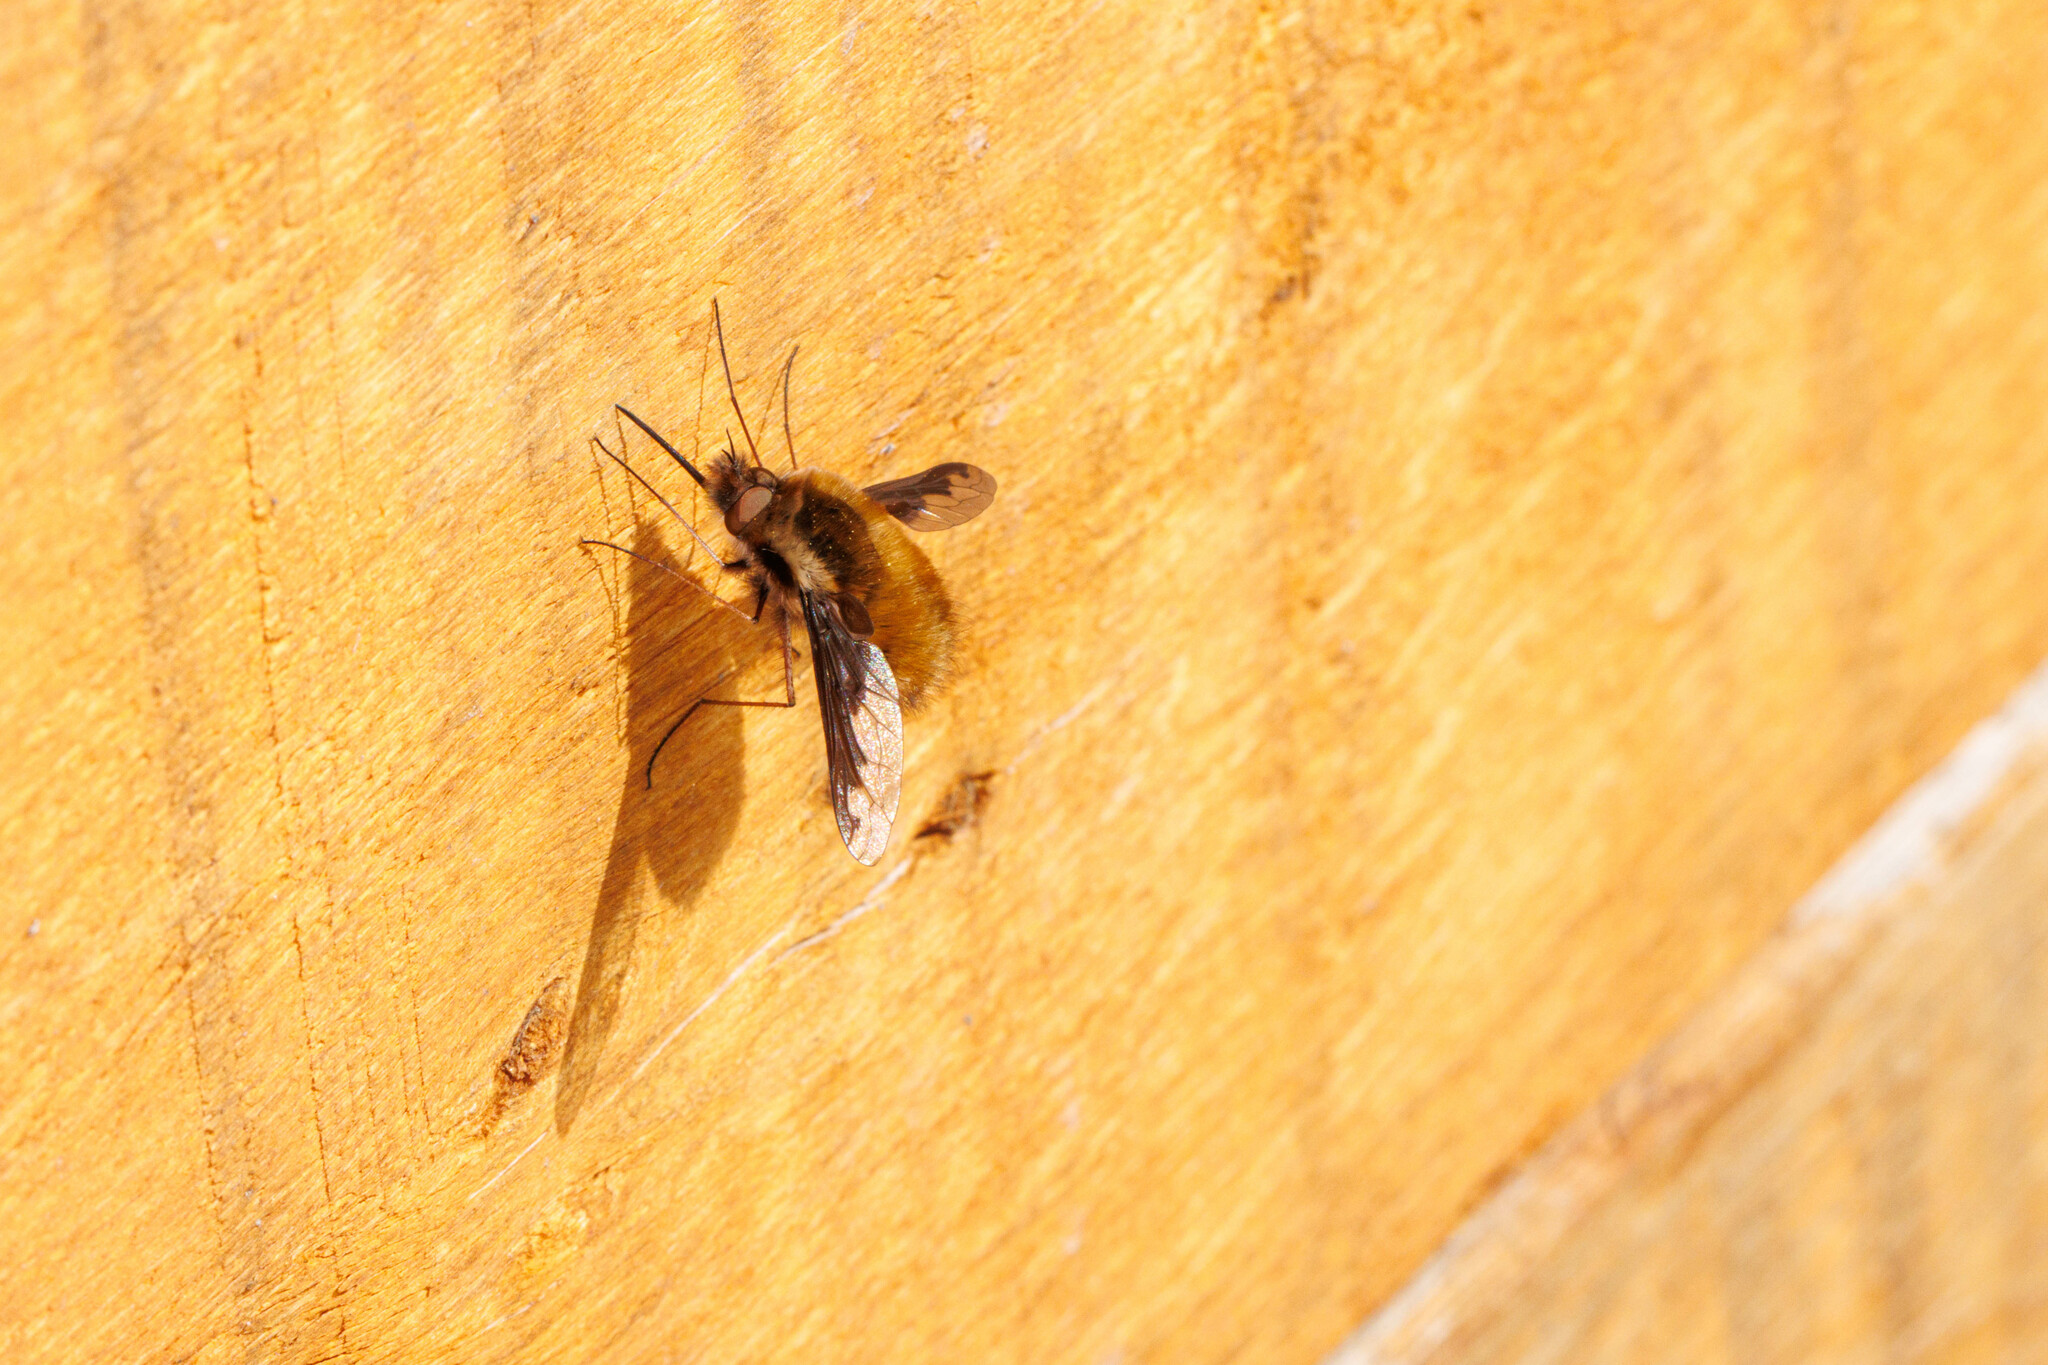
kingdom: Animalia
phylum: Arthropoda
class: Insecta
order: Diptera
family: Bombyliidae
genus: Bombylius
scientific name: Bombylius major
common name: Bee fly
